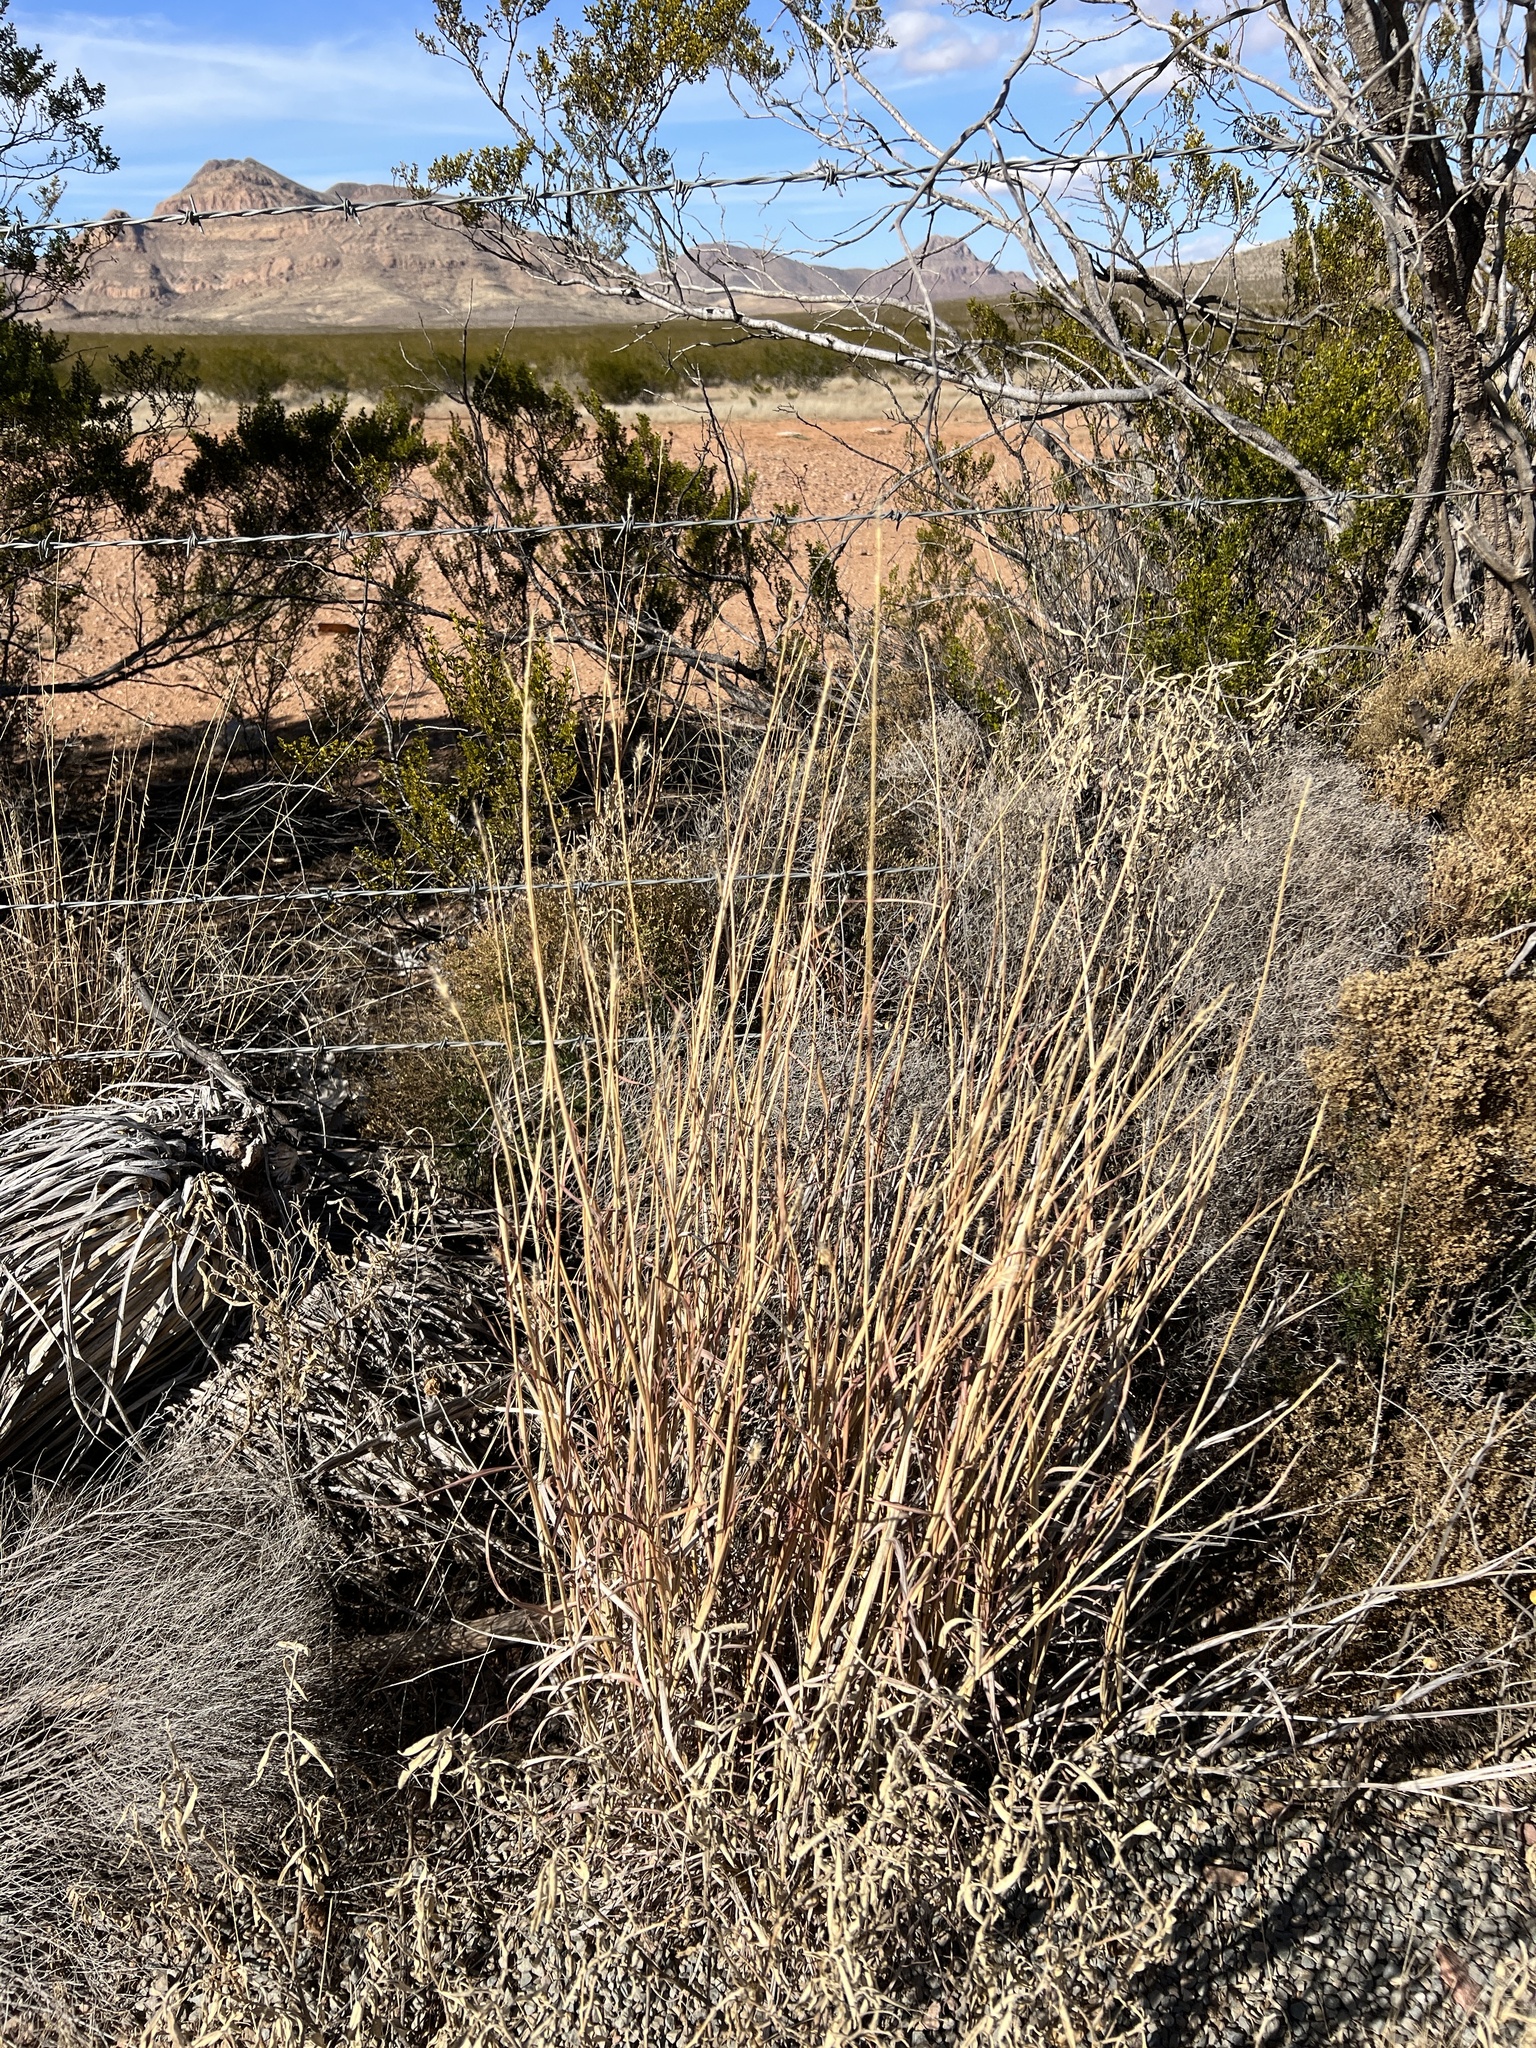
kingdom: Plantae
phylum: Tracheophyta
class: Liliopsida
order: Poales
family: Poaceae
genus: Bothriochloa
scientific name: Bothriochloa barbinodis
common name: Cane bluestem
